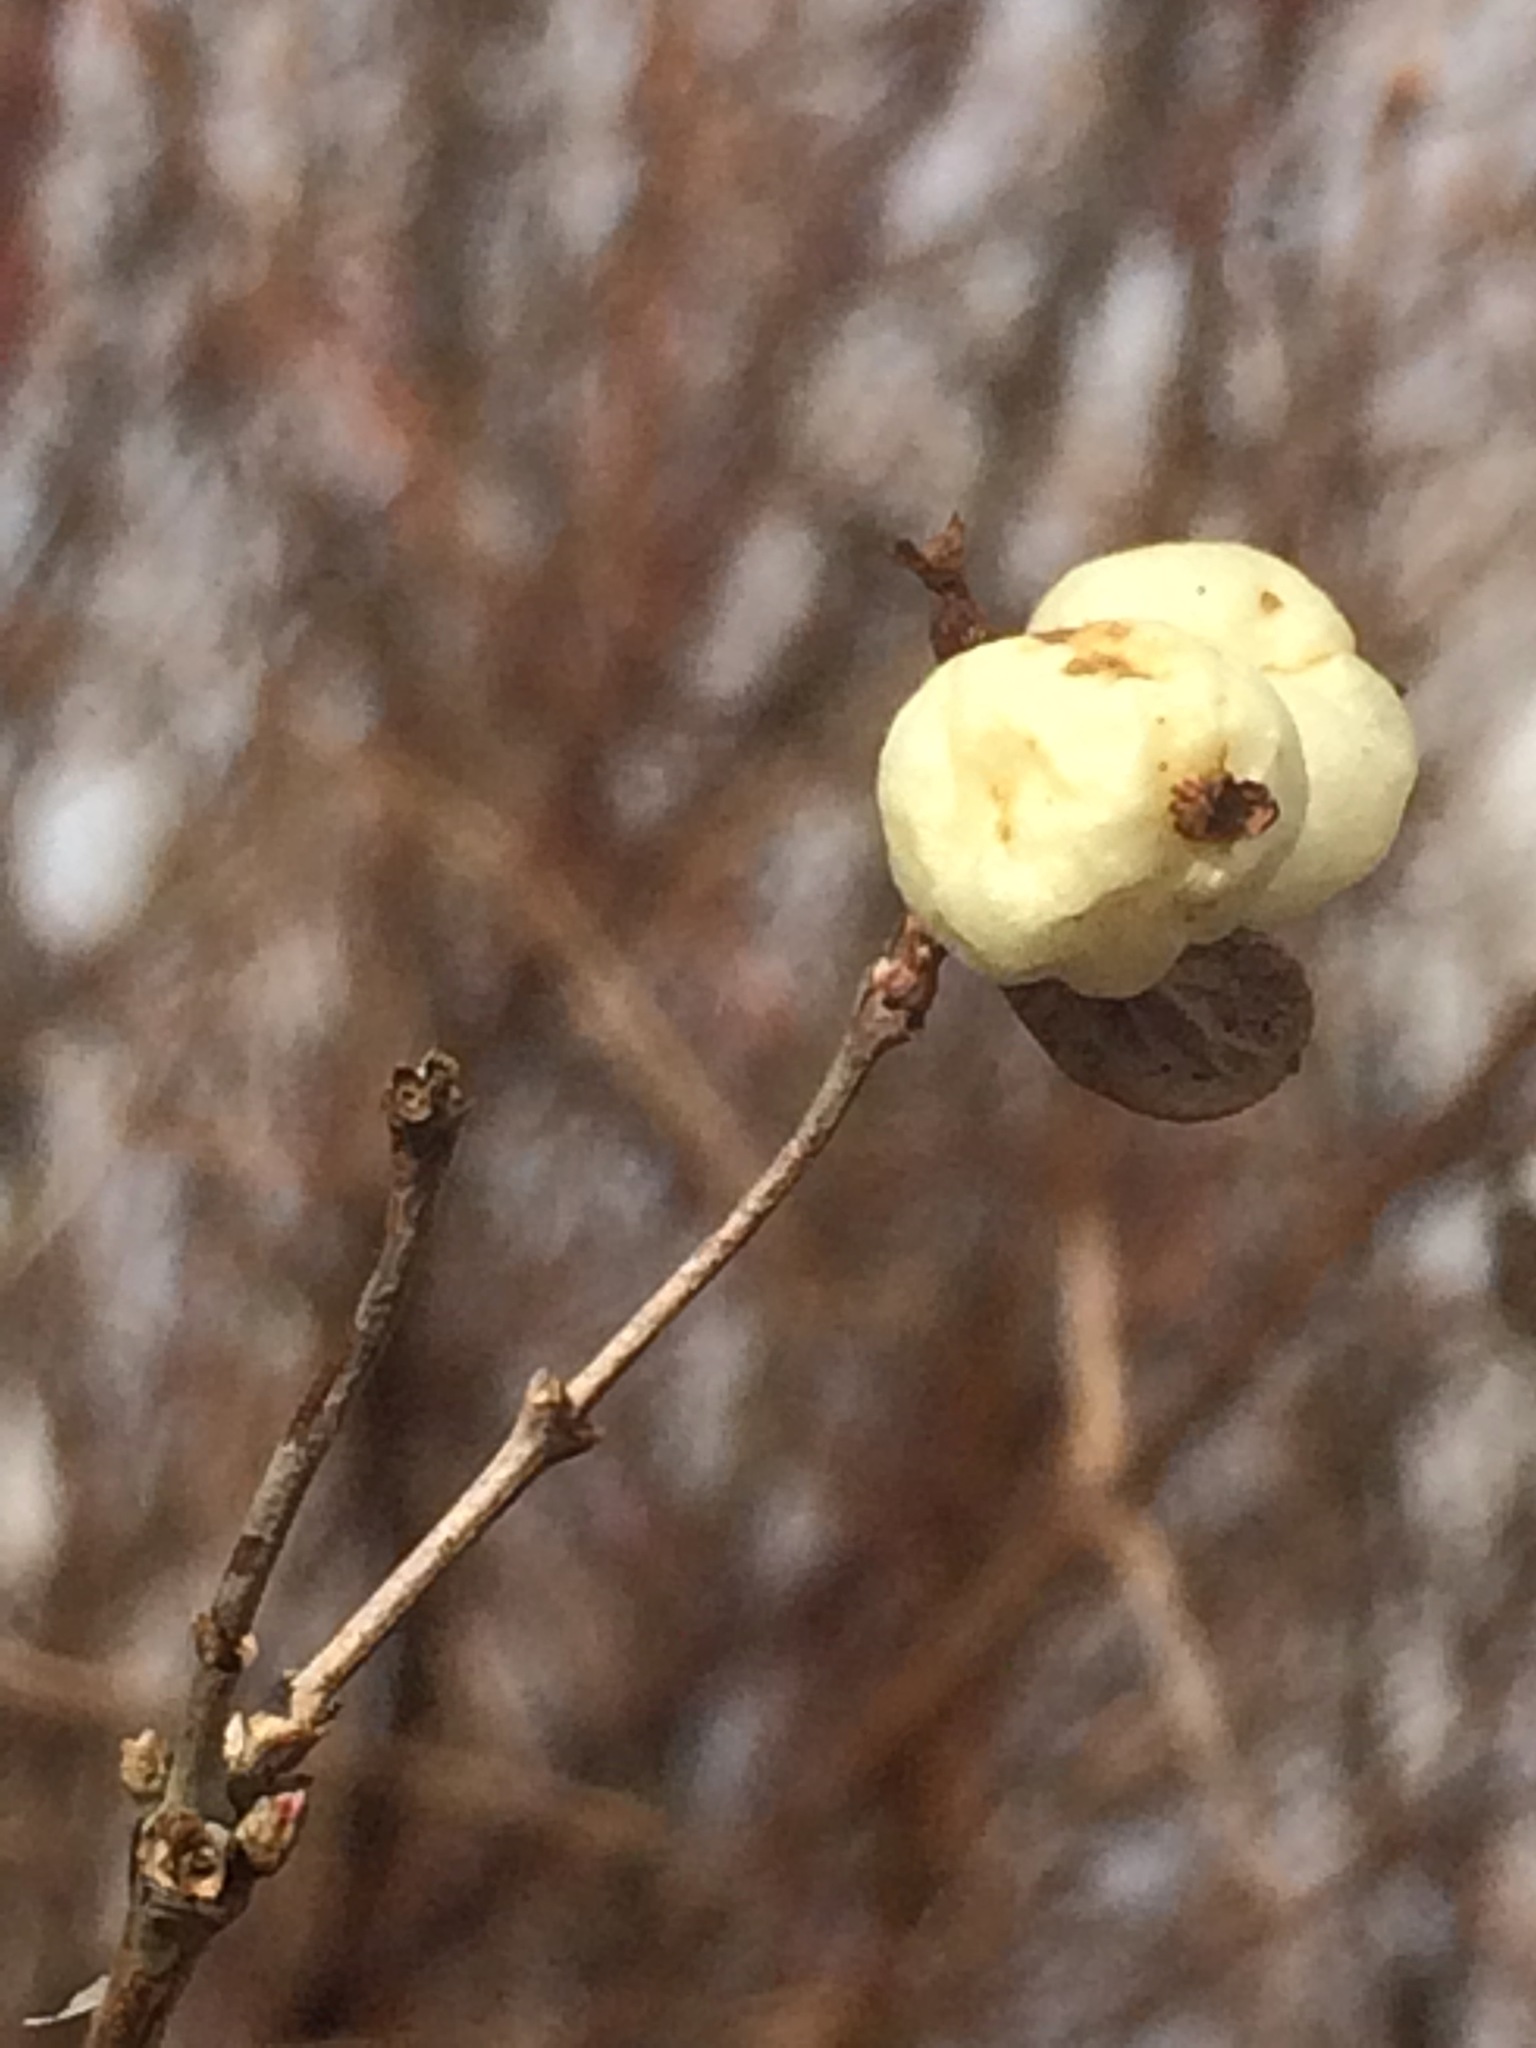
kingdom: Plantae
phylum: Tracheophyta
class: Magnoliopsida
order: Dipsacales
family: Caprifoliaceae
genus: Symphoricarpos
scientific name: Symphoricarpos albus
